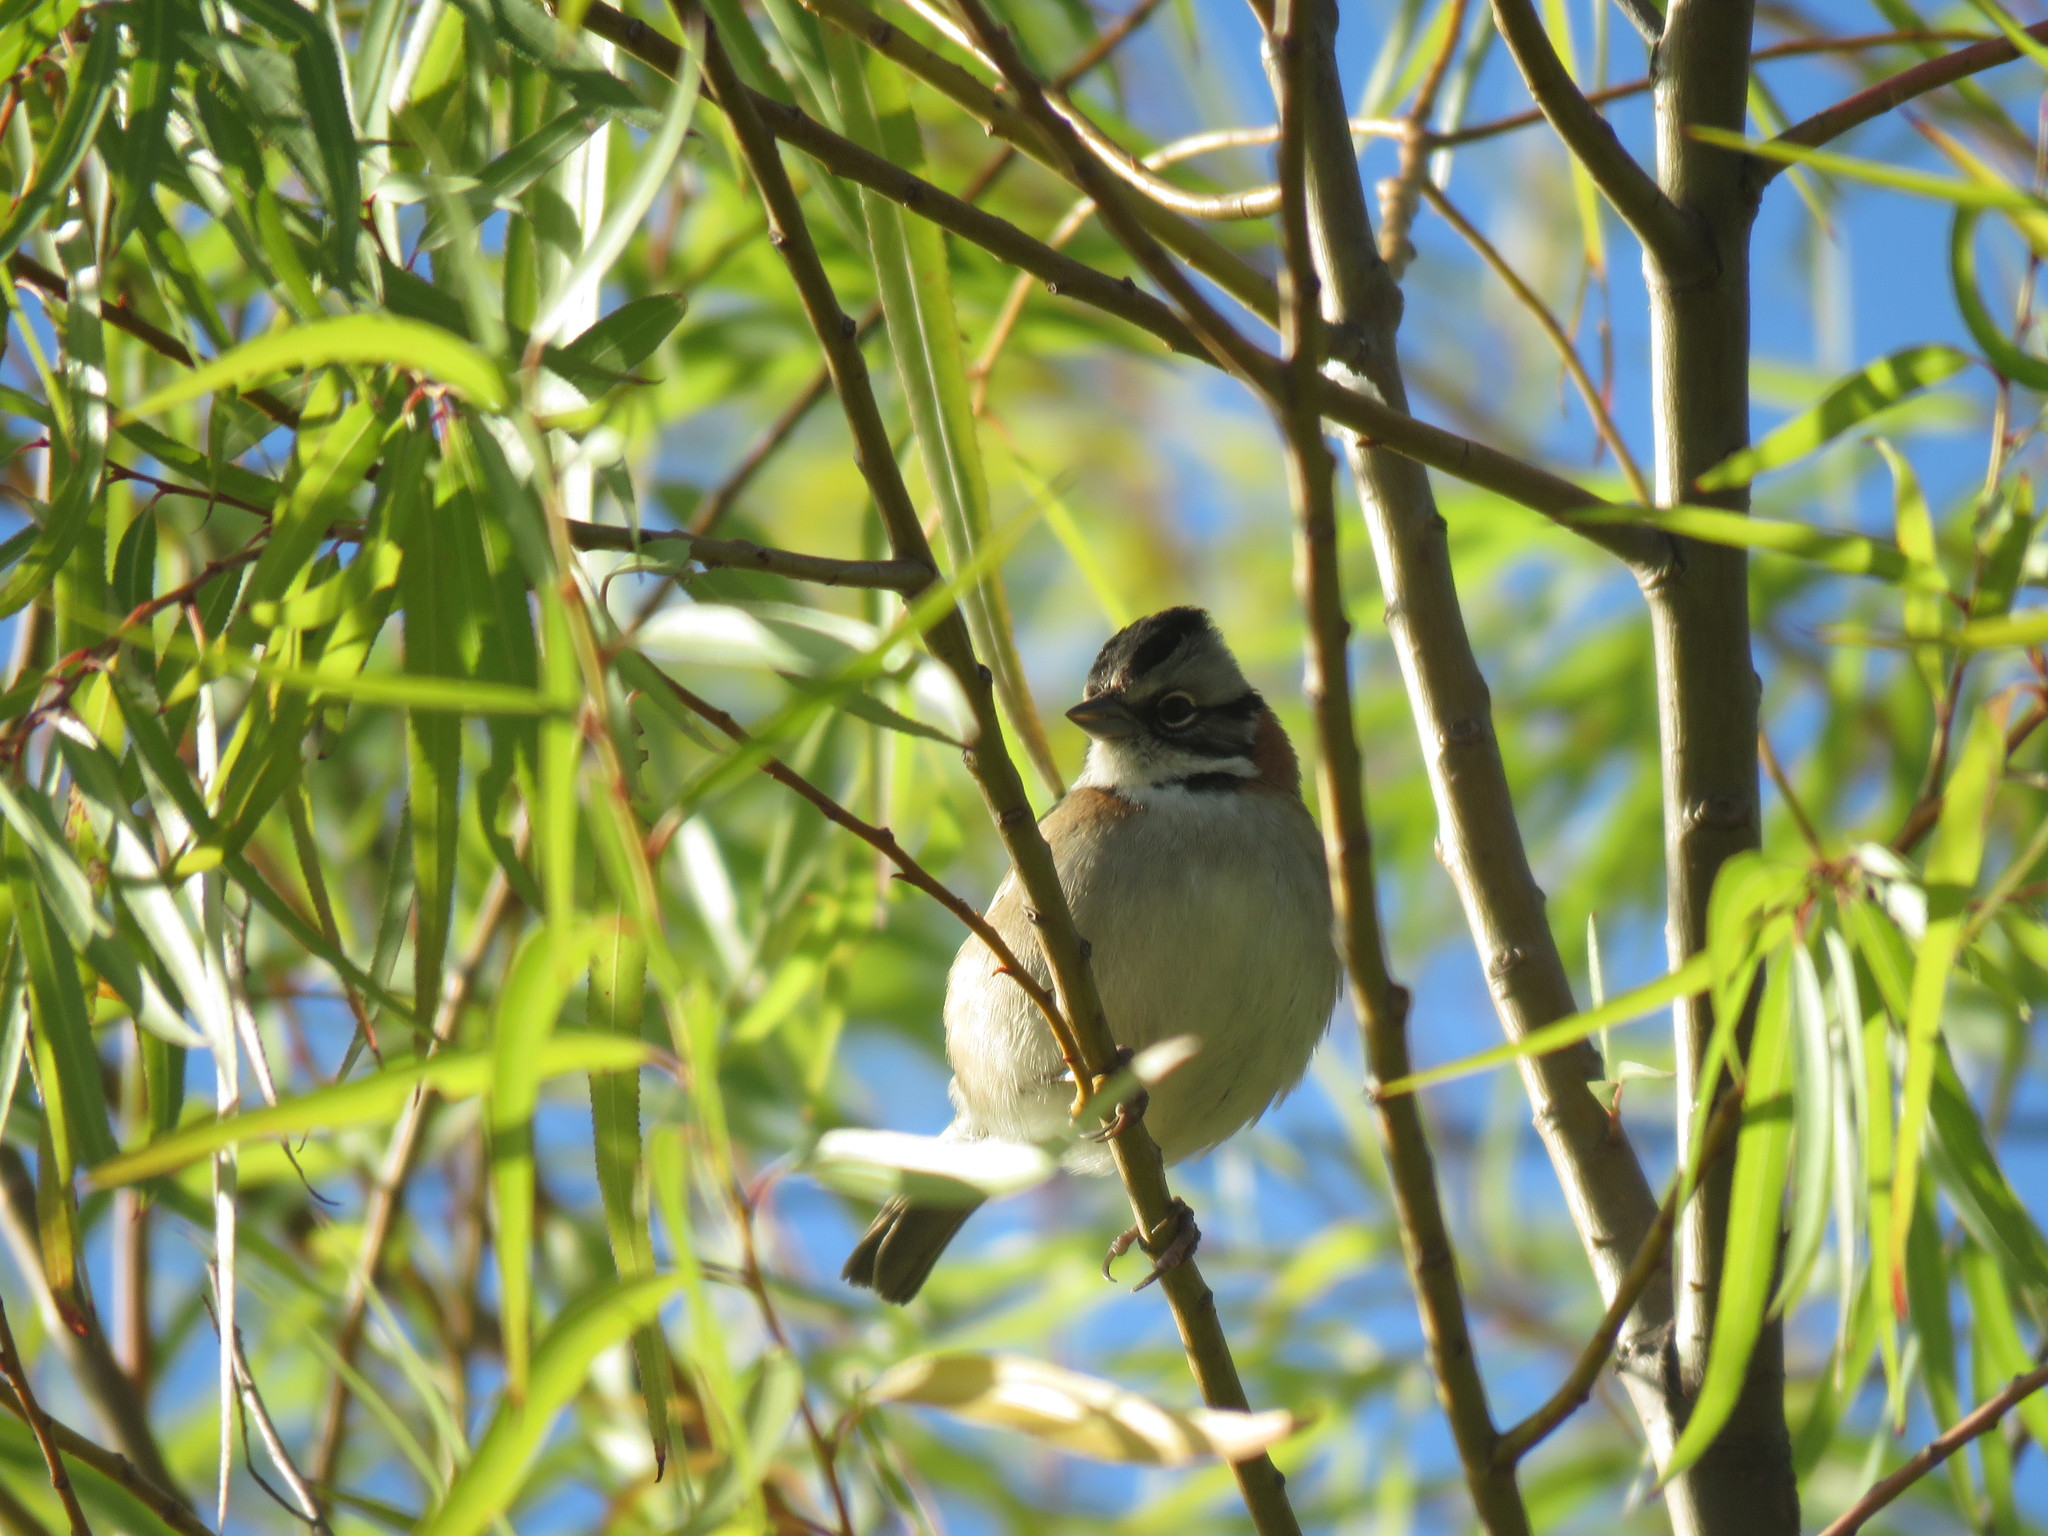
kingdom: Animalia
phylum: Chordata
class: Aves
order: Passeriformes
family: Passerellidae
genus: Zonotrichia
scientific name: Zonotrichia capensis
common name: Rufous-collared sparrow
